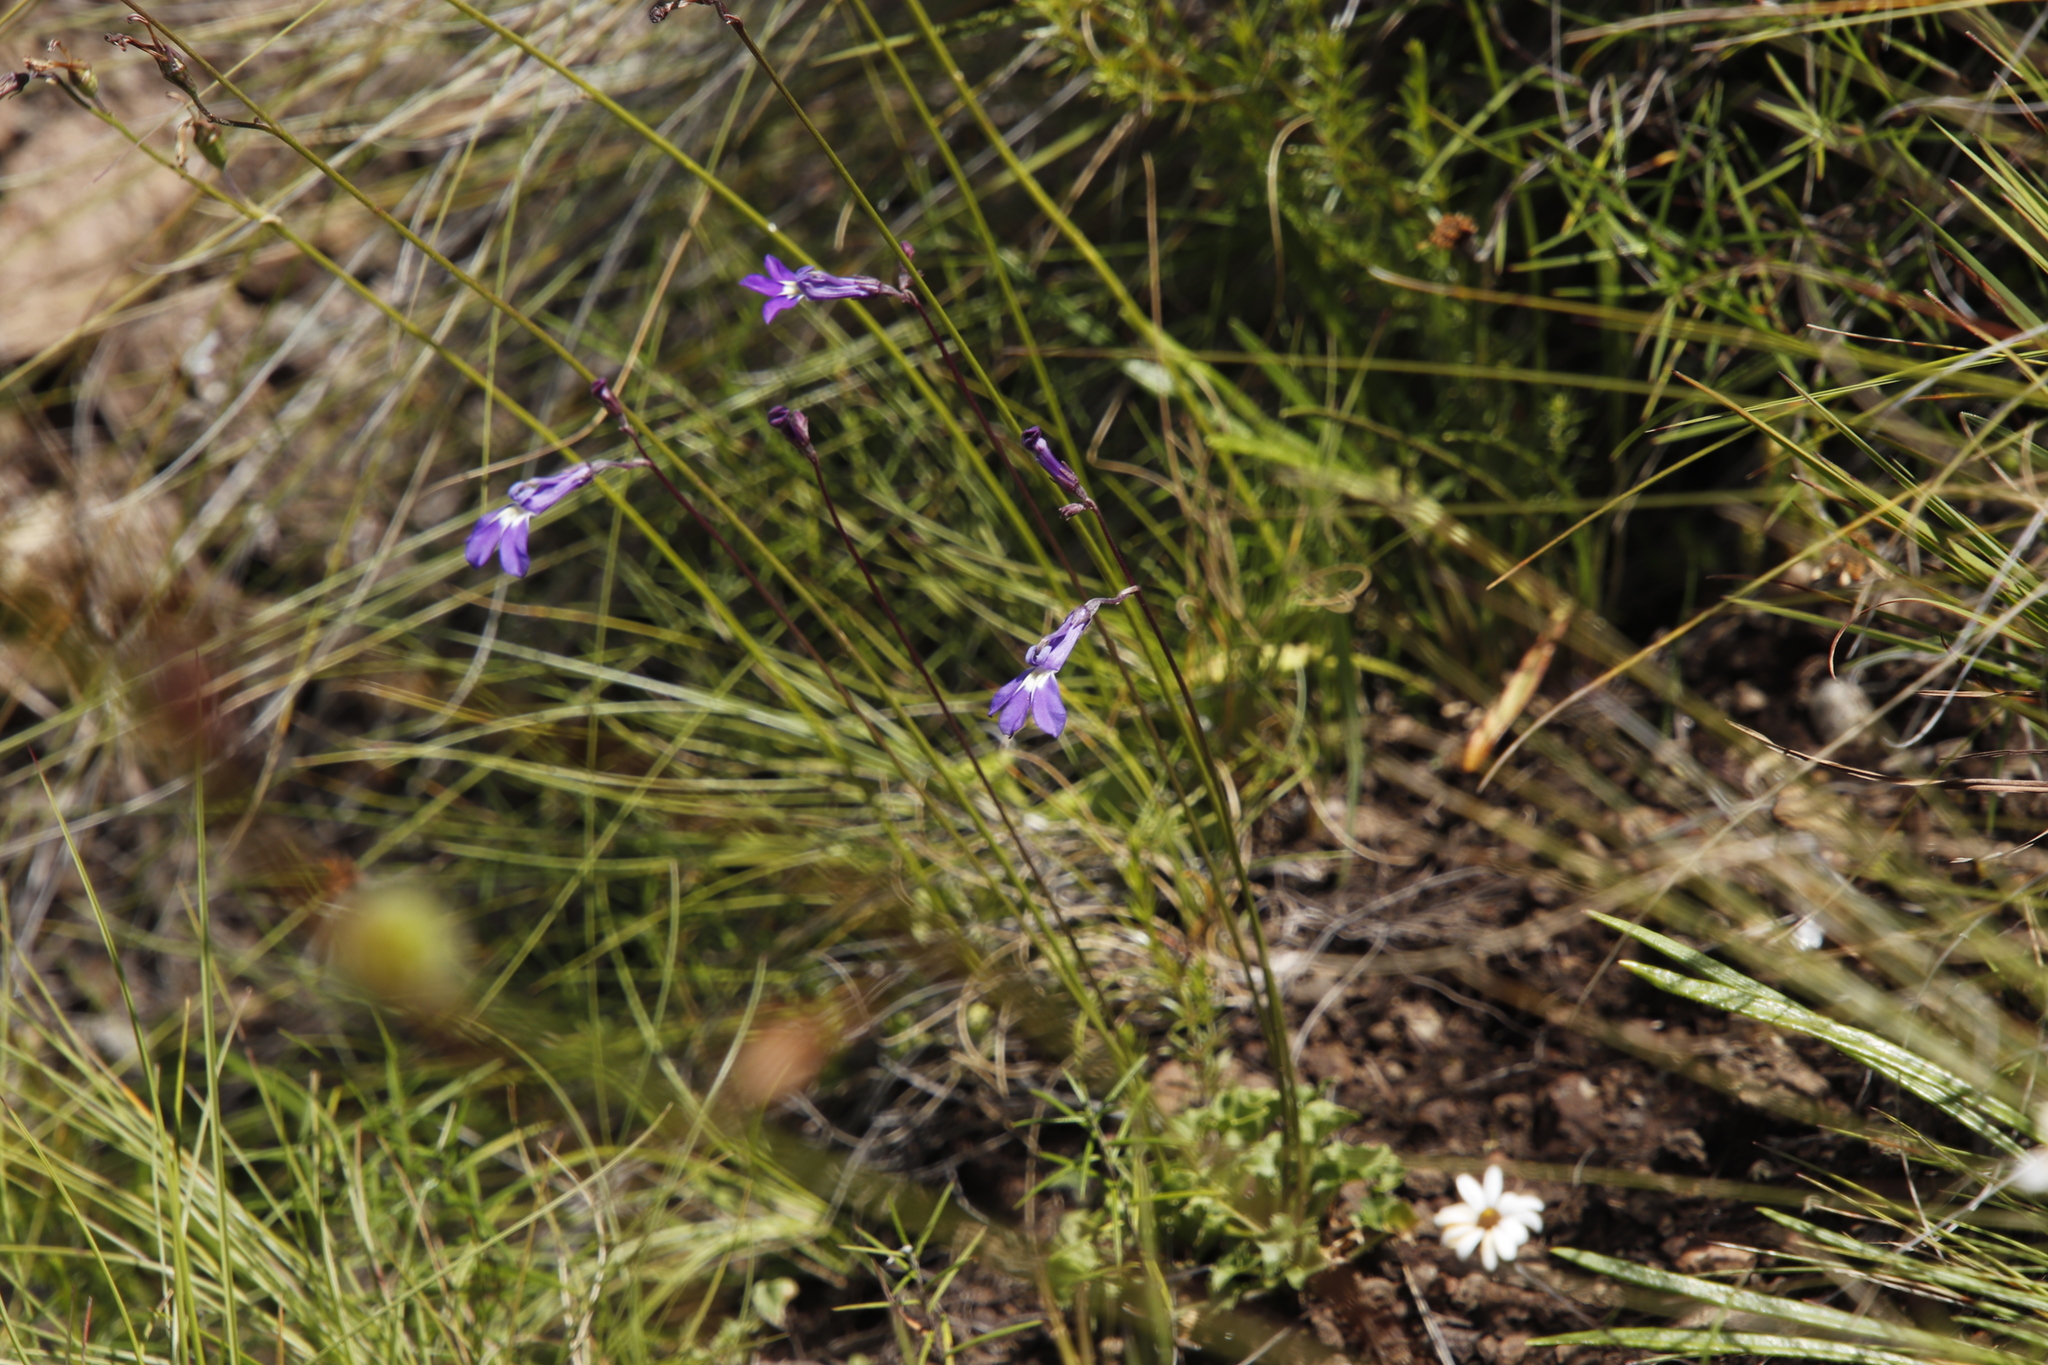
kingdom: Plantae
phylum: Tracheophyta
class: Magnoliopsida
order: Asterales
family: Campanulaceae
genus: Lobelia
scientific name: Lobelia preslii
